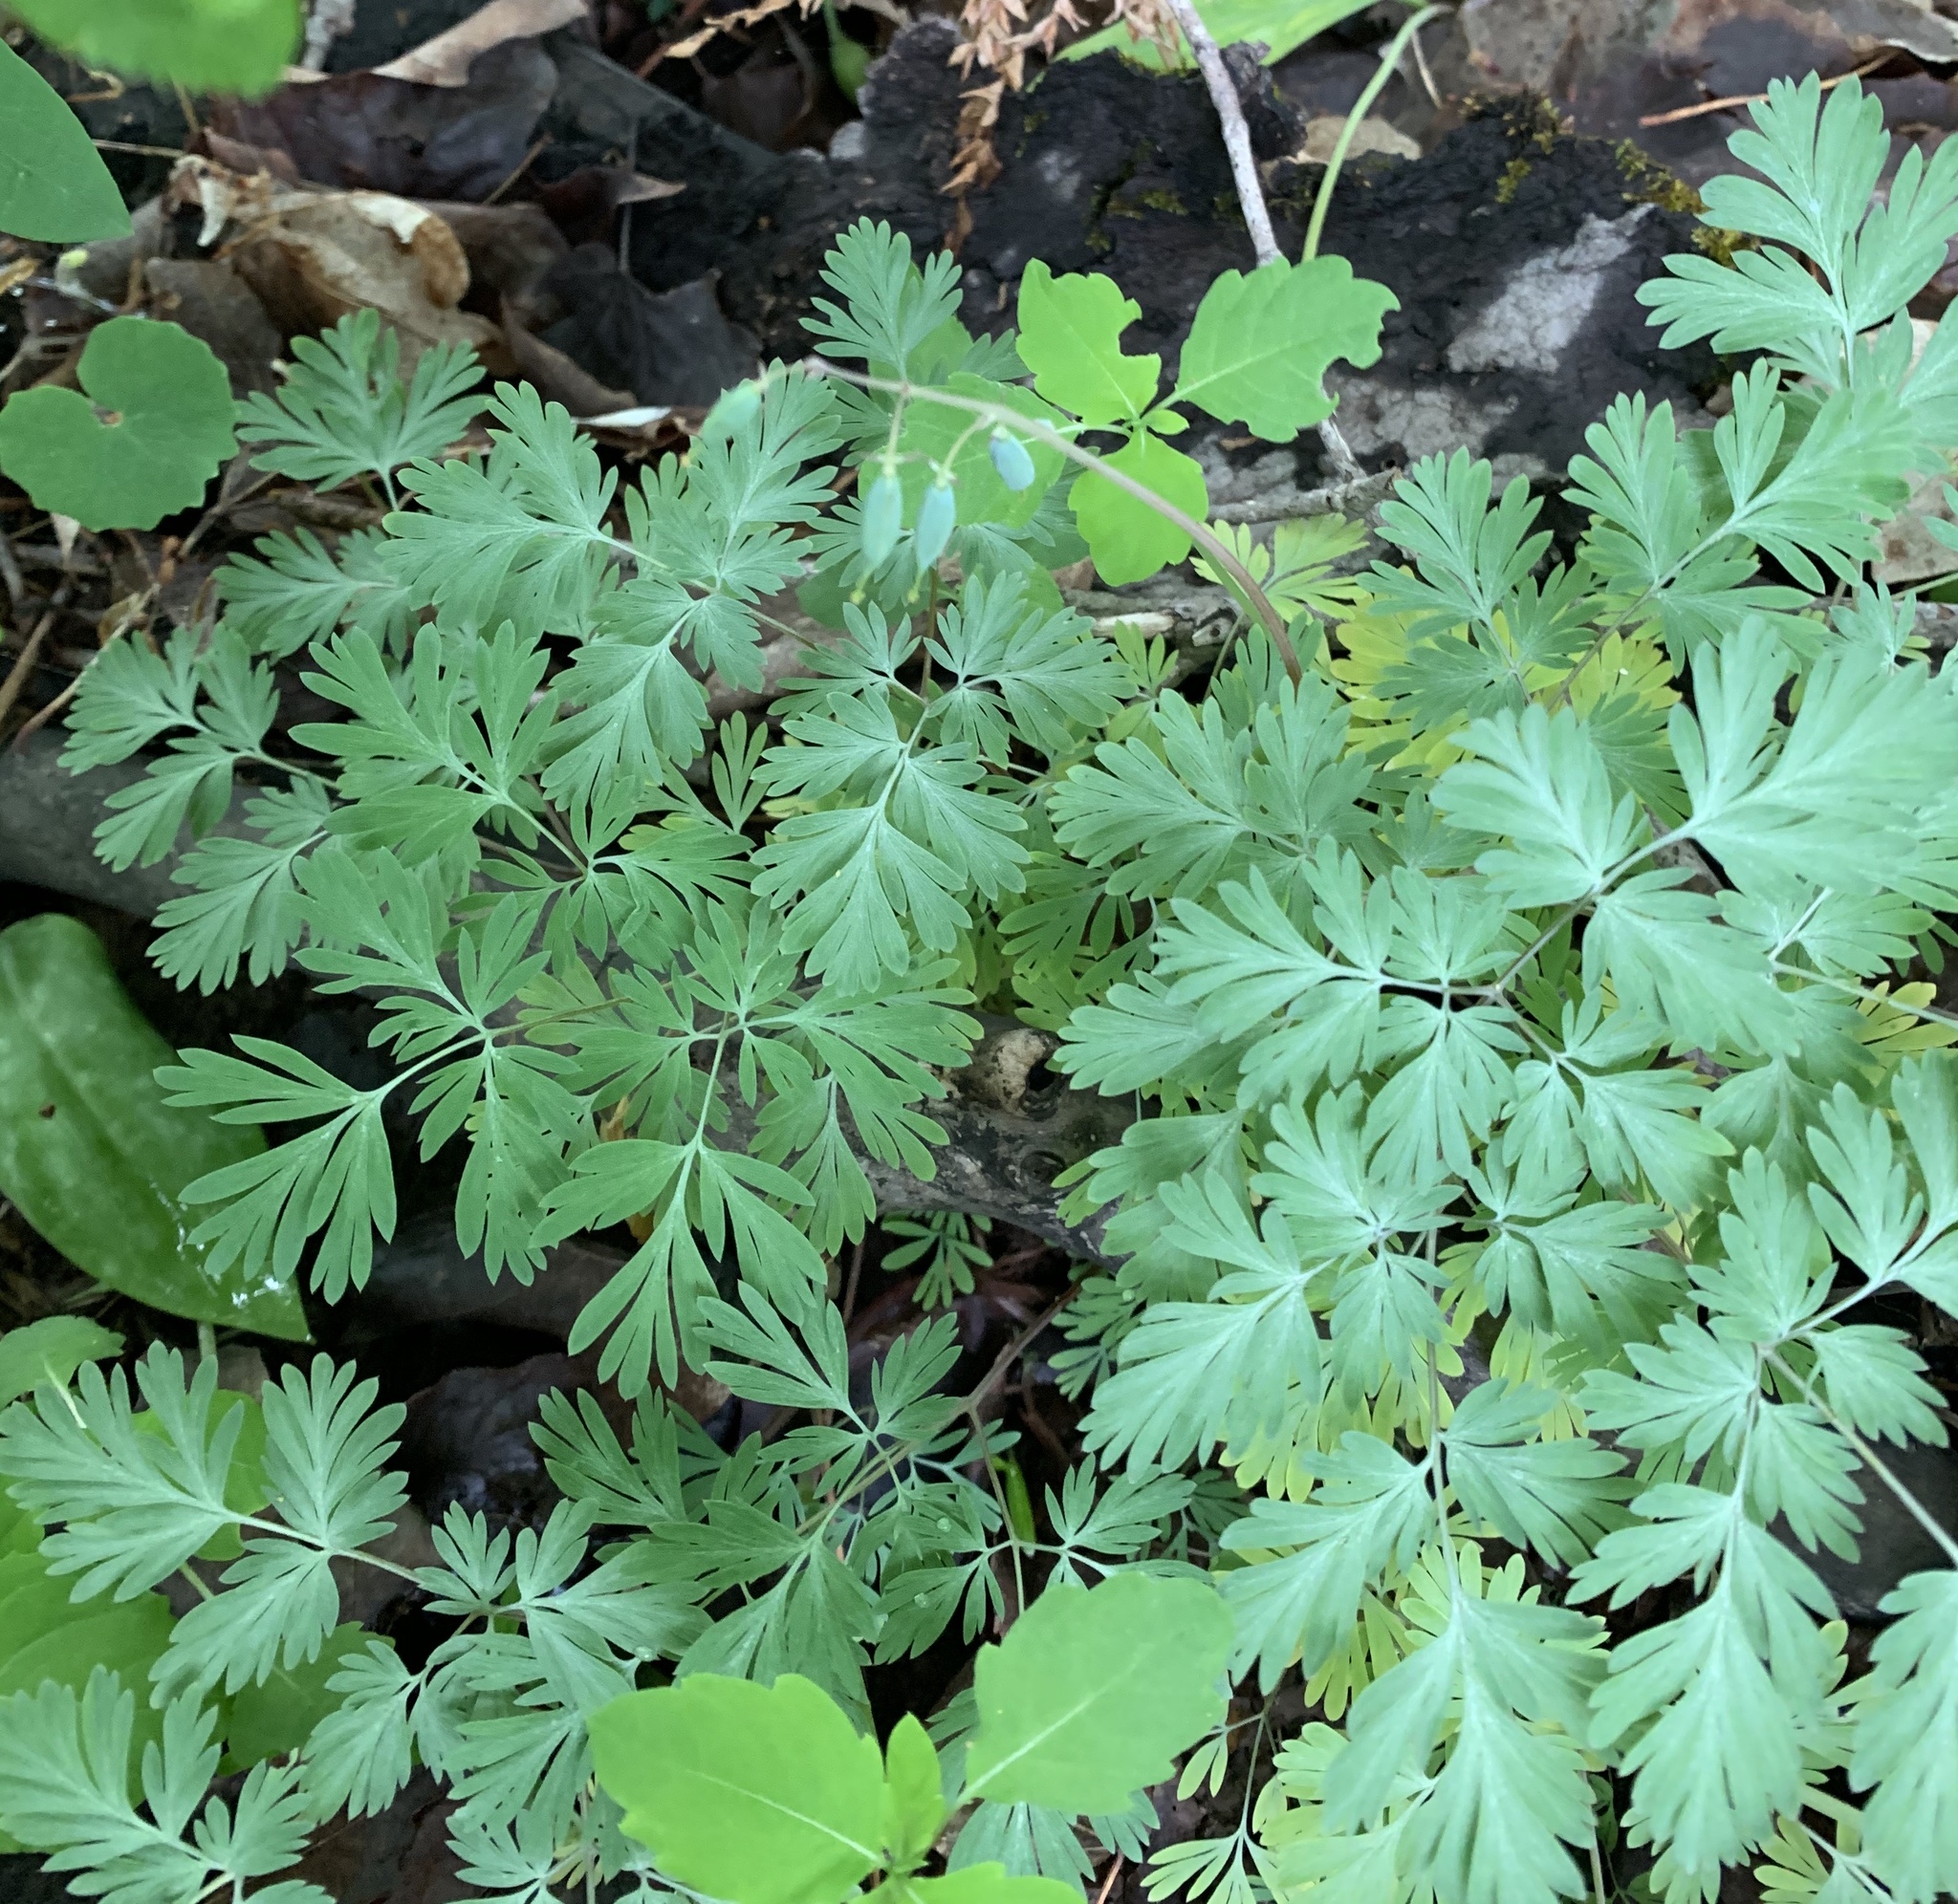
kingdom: Plantae
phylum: Tracheophyta
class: Magnoliopsida
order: Ranunculales
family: Papaveraceae
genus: Dicentra
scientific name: Dicentra cucullaria
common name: Dutchman's breeches
